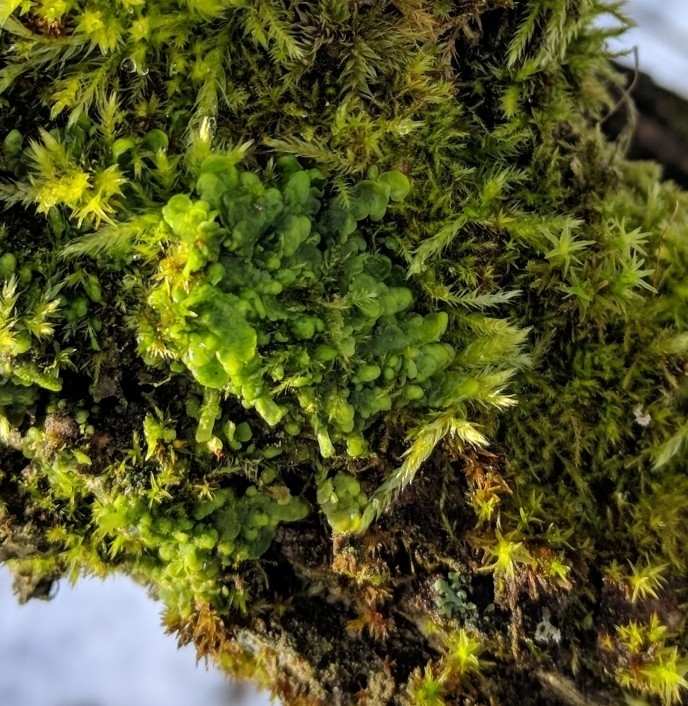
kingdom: Plantae
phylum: Marchantiophyta
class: Jungermanniopsida
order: Porellales
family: Radulaceae
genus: Radula
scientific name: Radula complanata
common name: Flat-leaved scalewort
